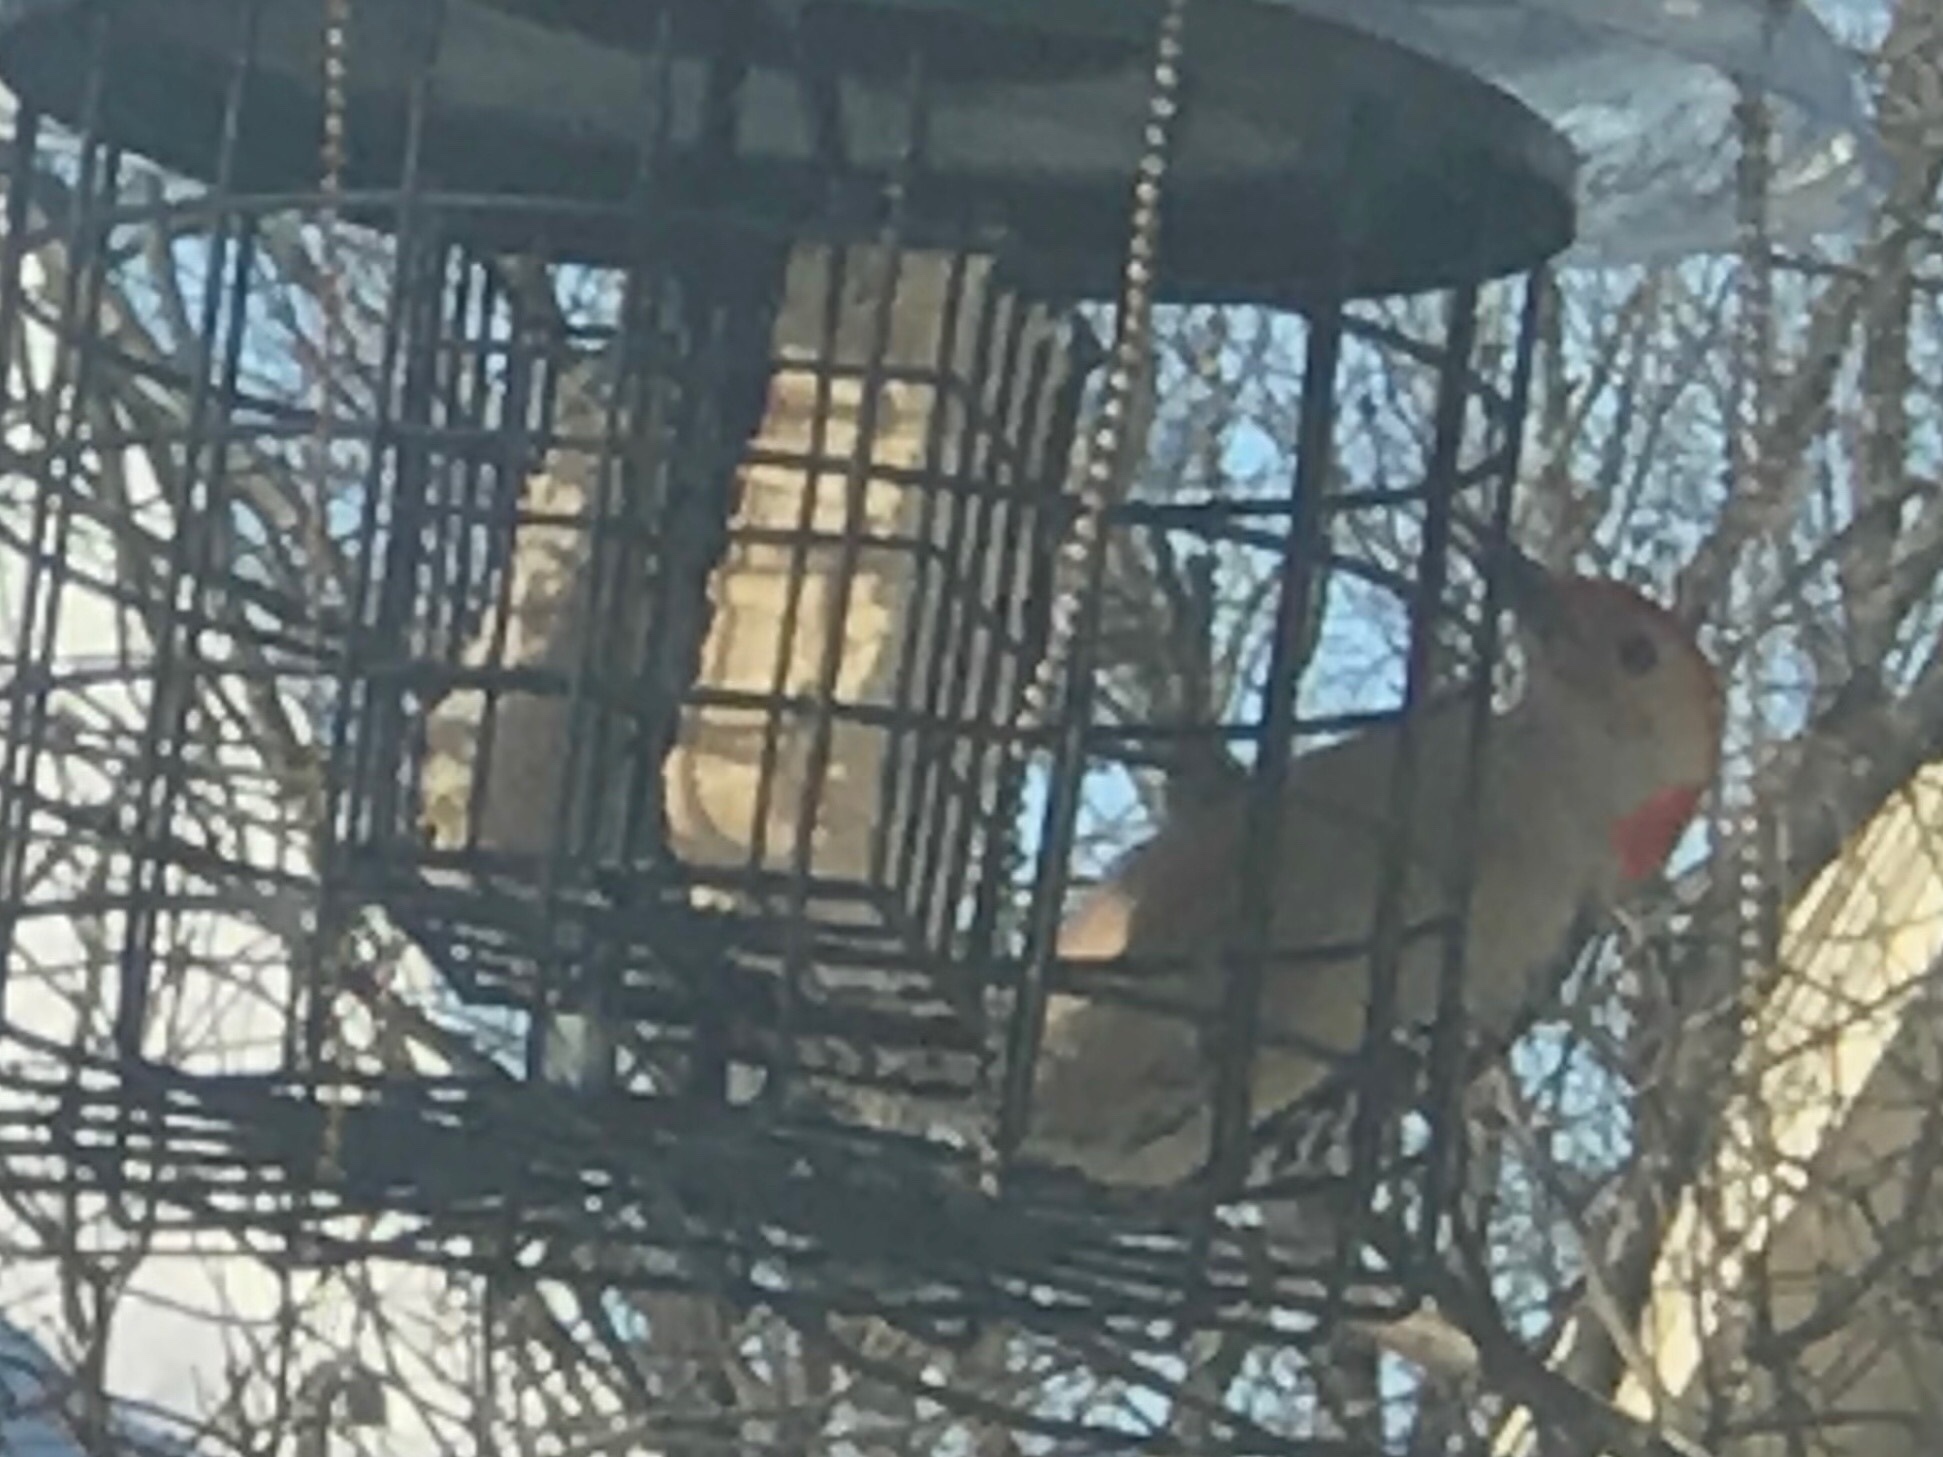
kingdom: Animalia
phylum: Chordata
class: Aves
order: Piciformes
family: Picidae
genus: Melanerpes
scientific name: Melanerpes carolinus
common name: Red-bellied woodpecker
